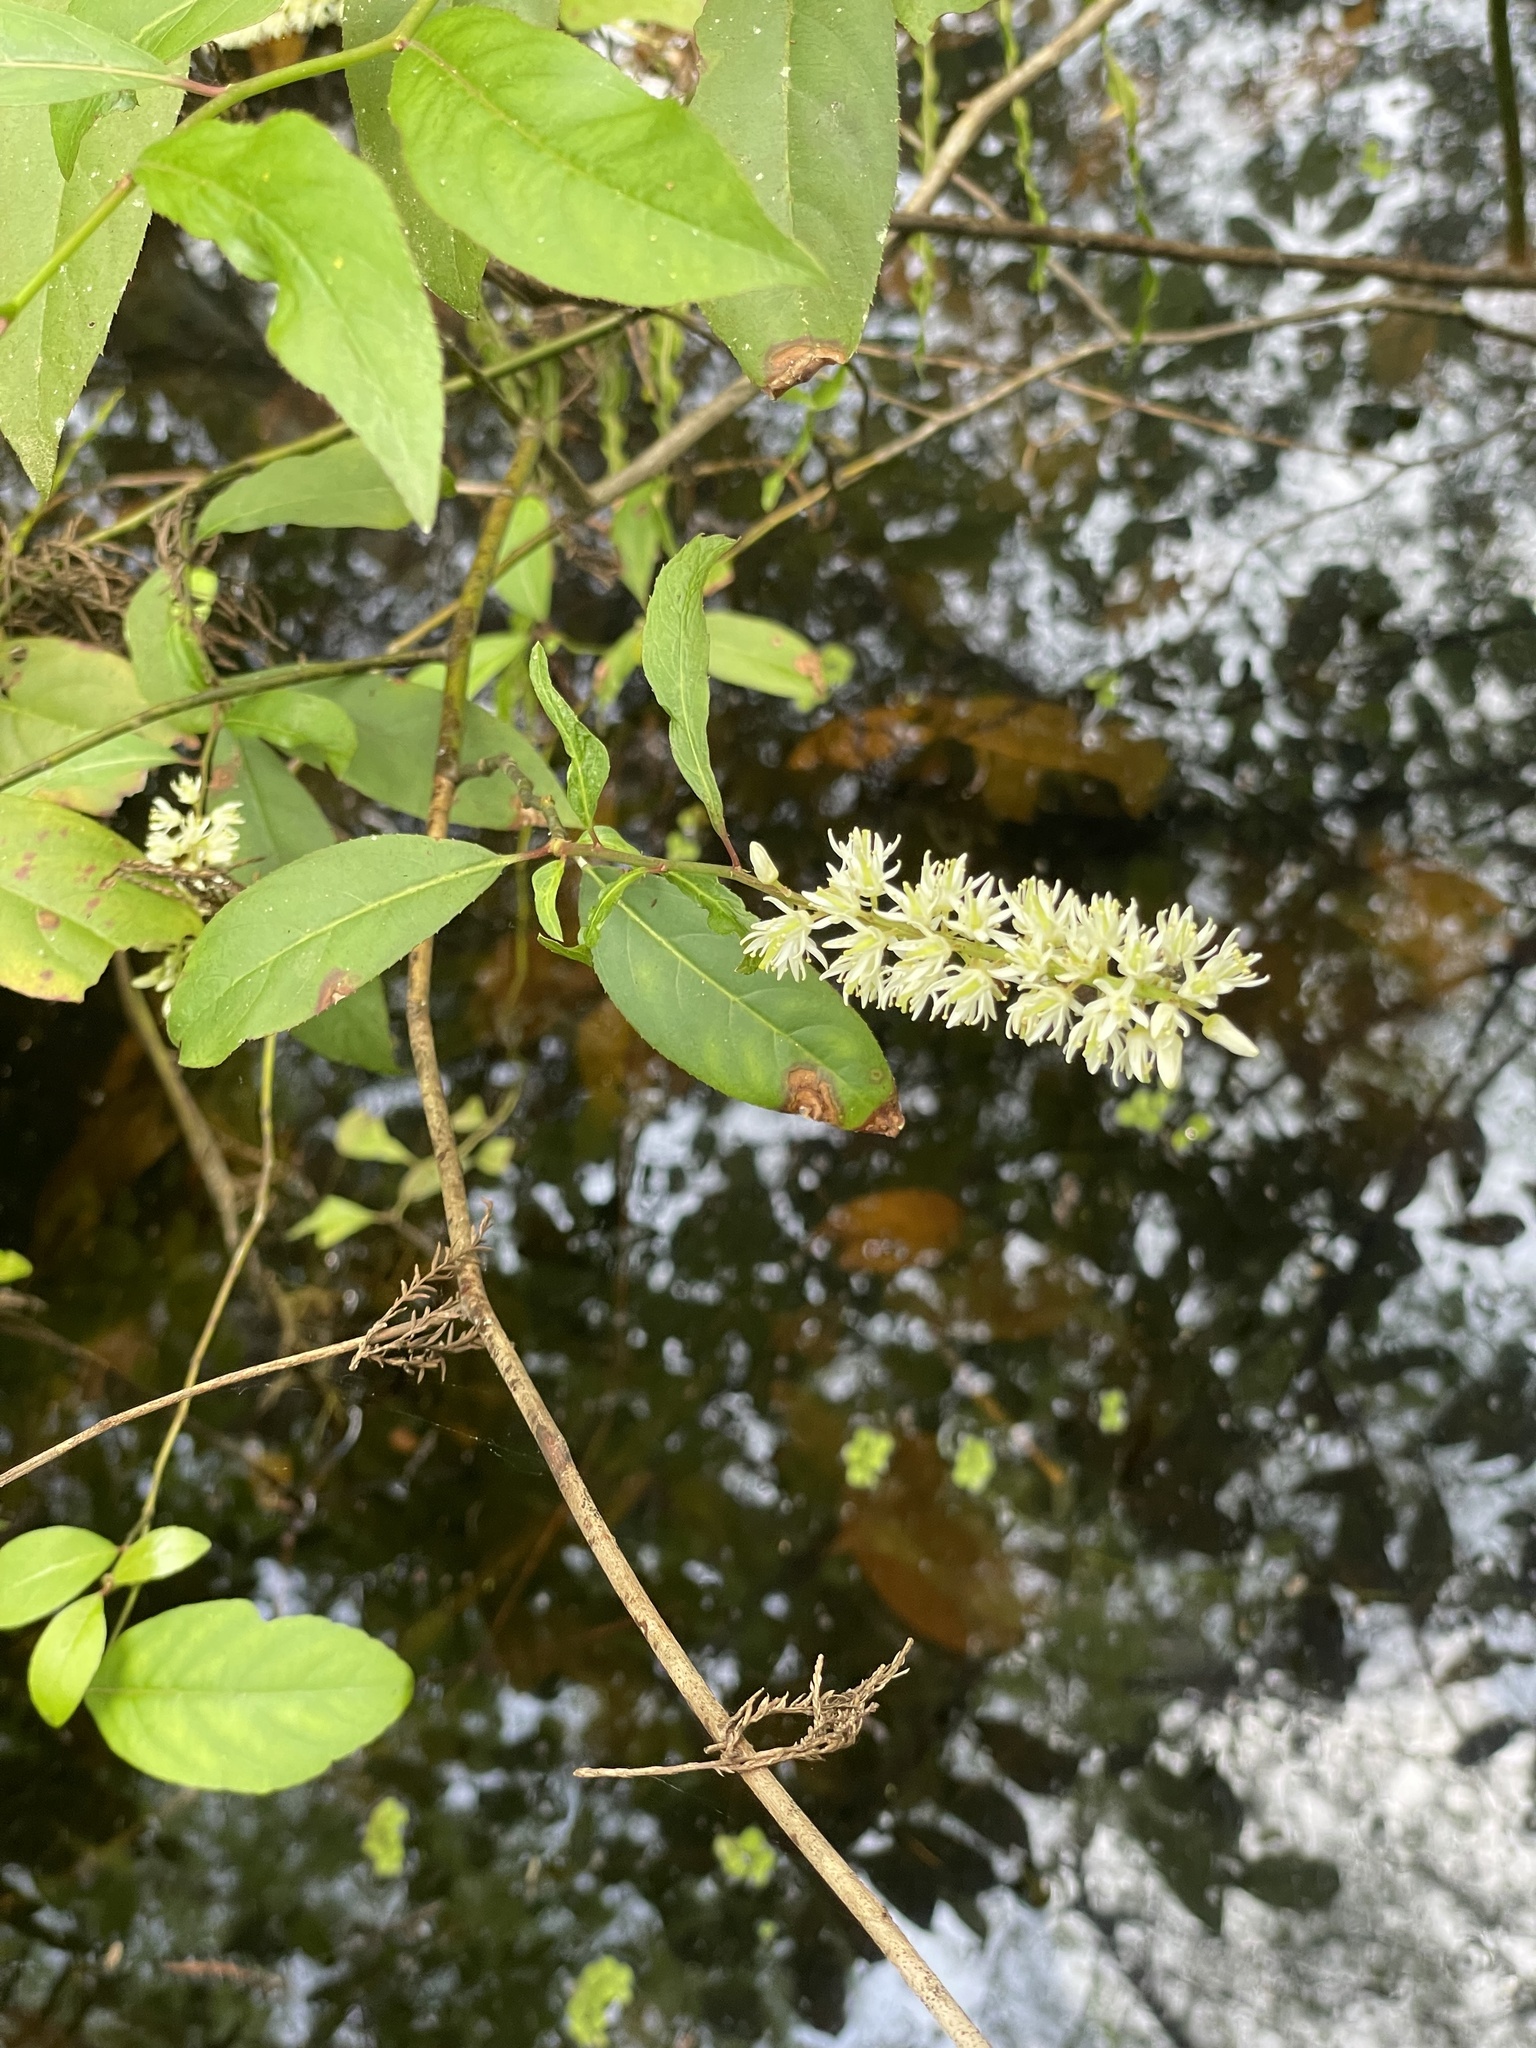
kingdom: Plantae
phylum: Tracheophyta
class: Magnoliopsida
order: Saxifragales
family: Iteaceae
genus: Itea
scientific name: Itea virginica
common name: Sweetspire
